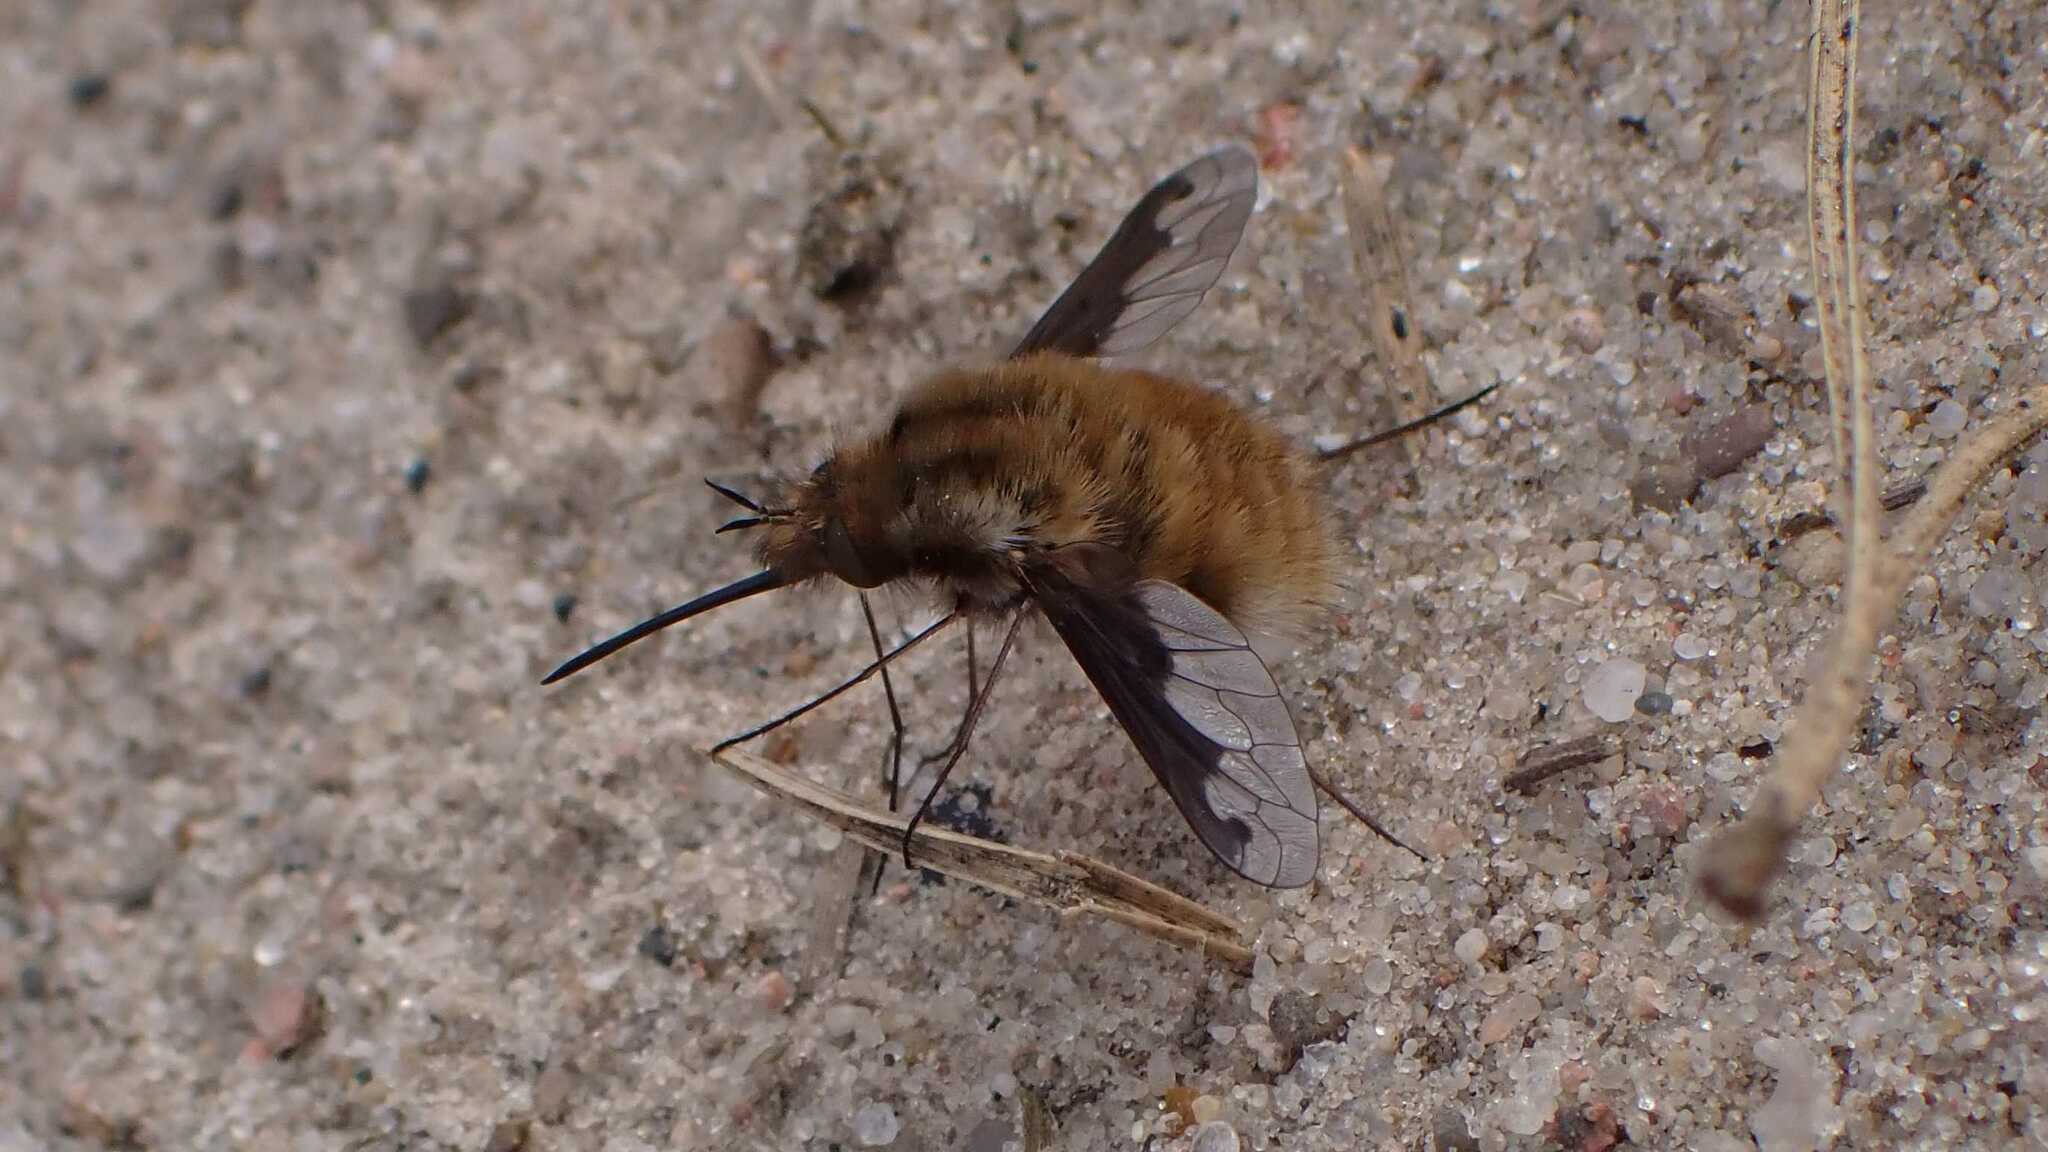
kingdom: Animalia
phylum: Arthropoda
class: Insecta
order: Diptera
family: Bombyliidae
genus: Bombylius
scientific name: Bombylius major
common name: Bee fly
